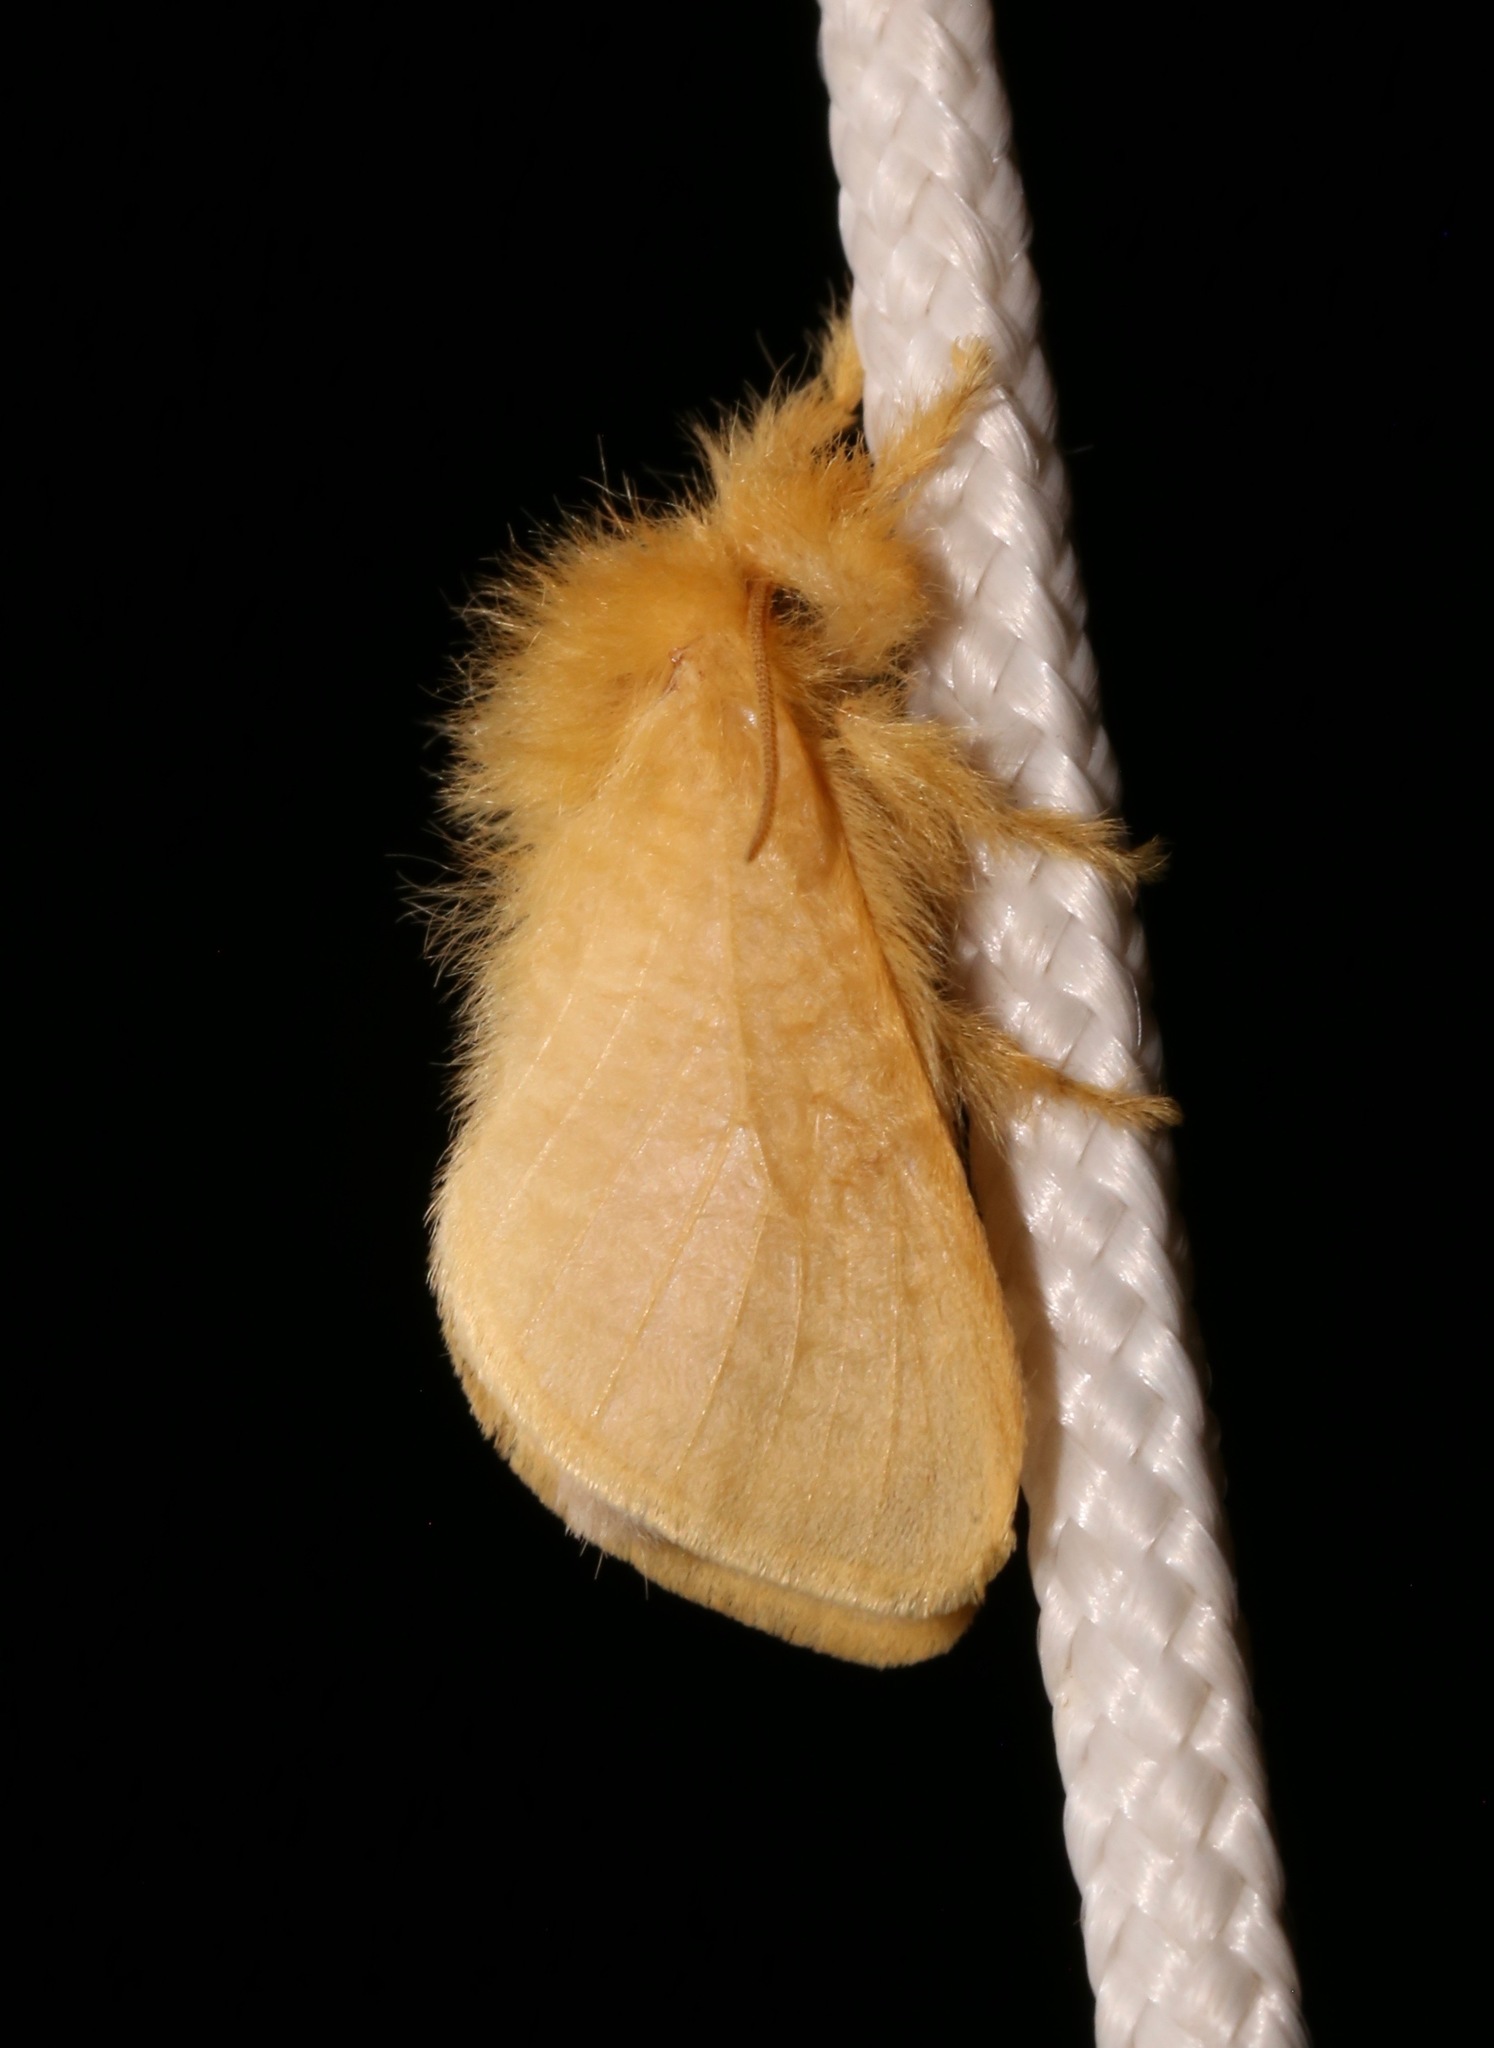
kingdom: Animalia
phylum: Arthropoda
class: Insecta
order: Lepidoptera
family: Megalopygidae
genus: Megalopyge
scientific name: Megalopyge pixidifera
